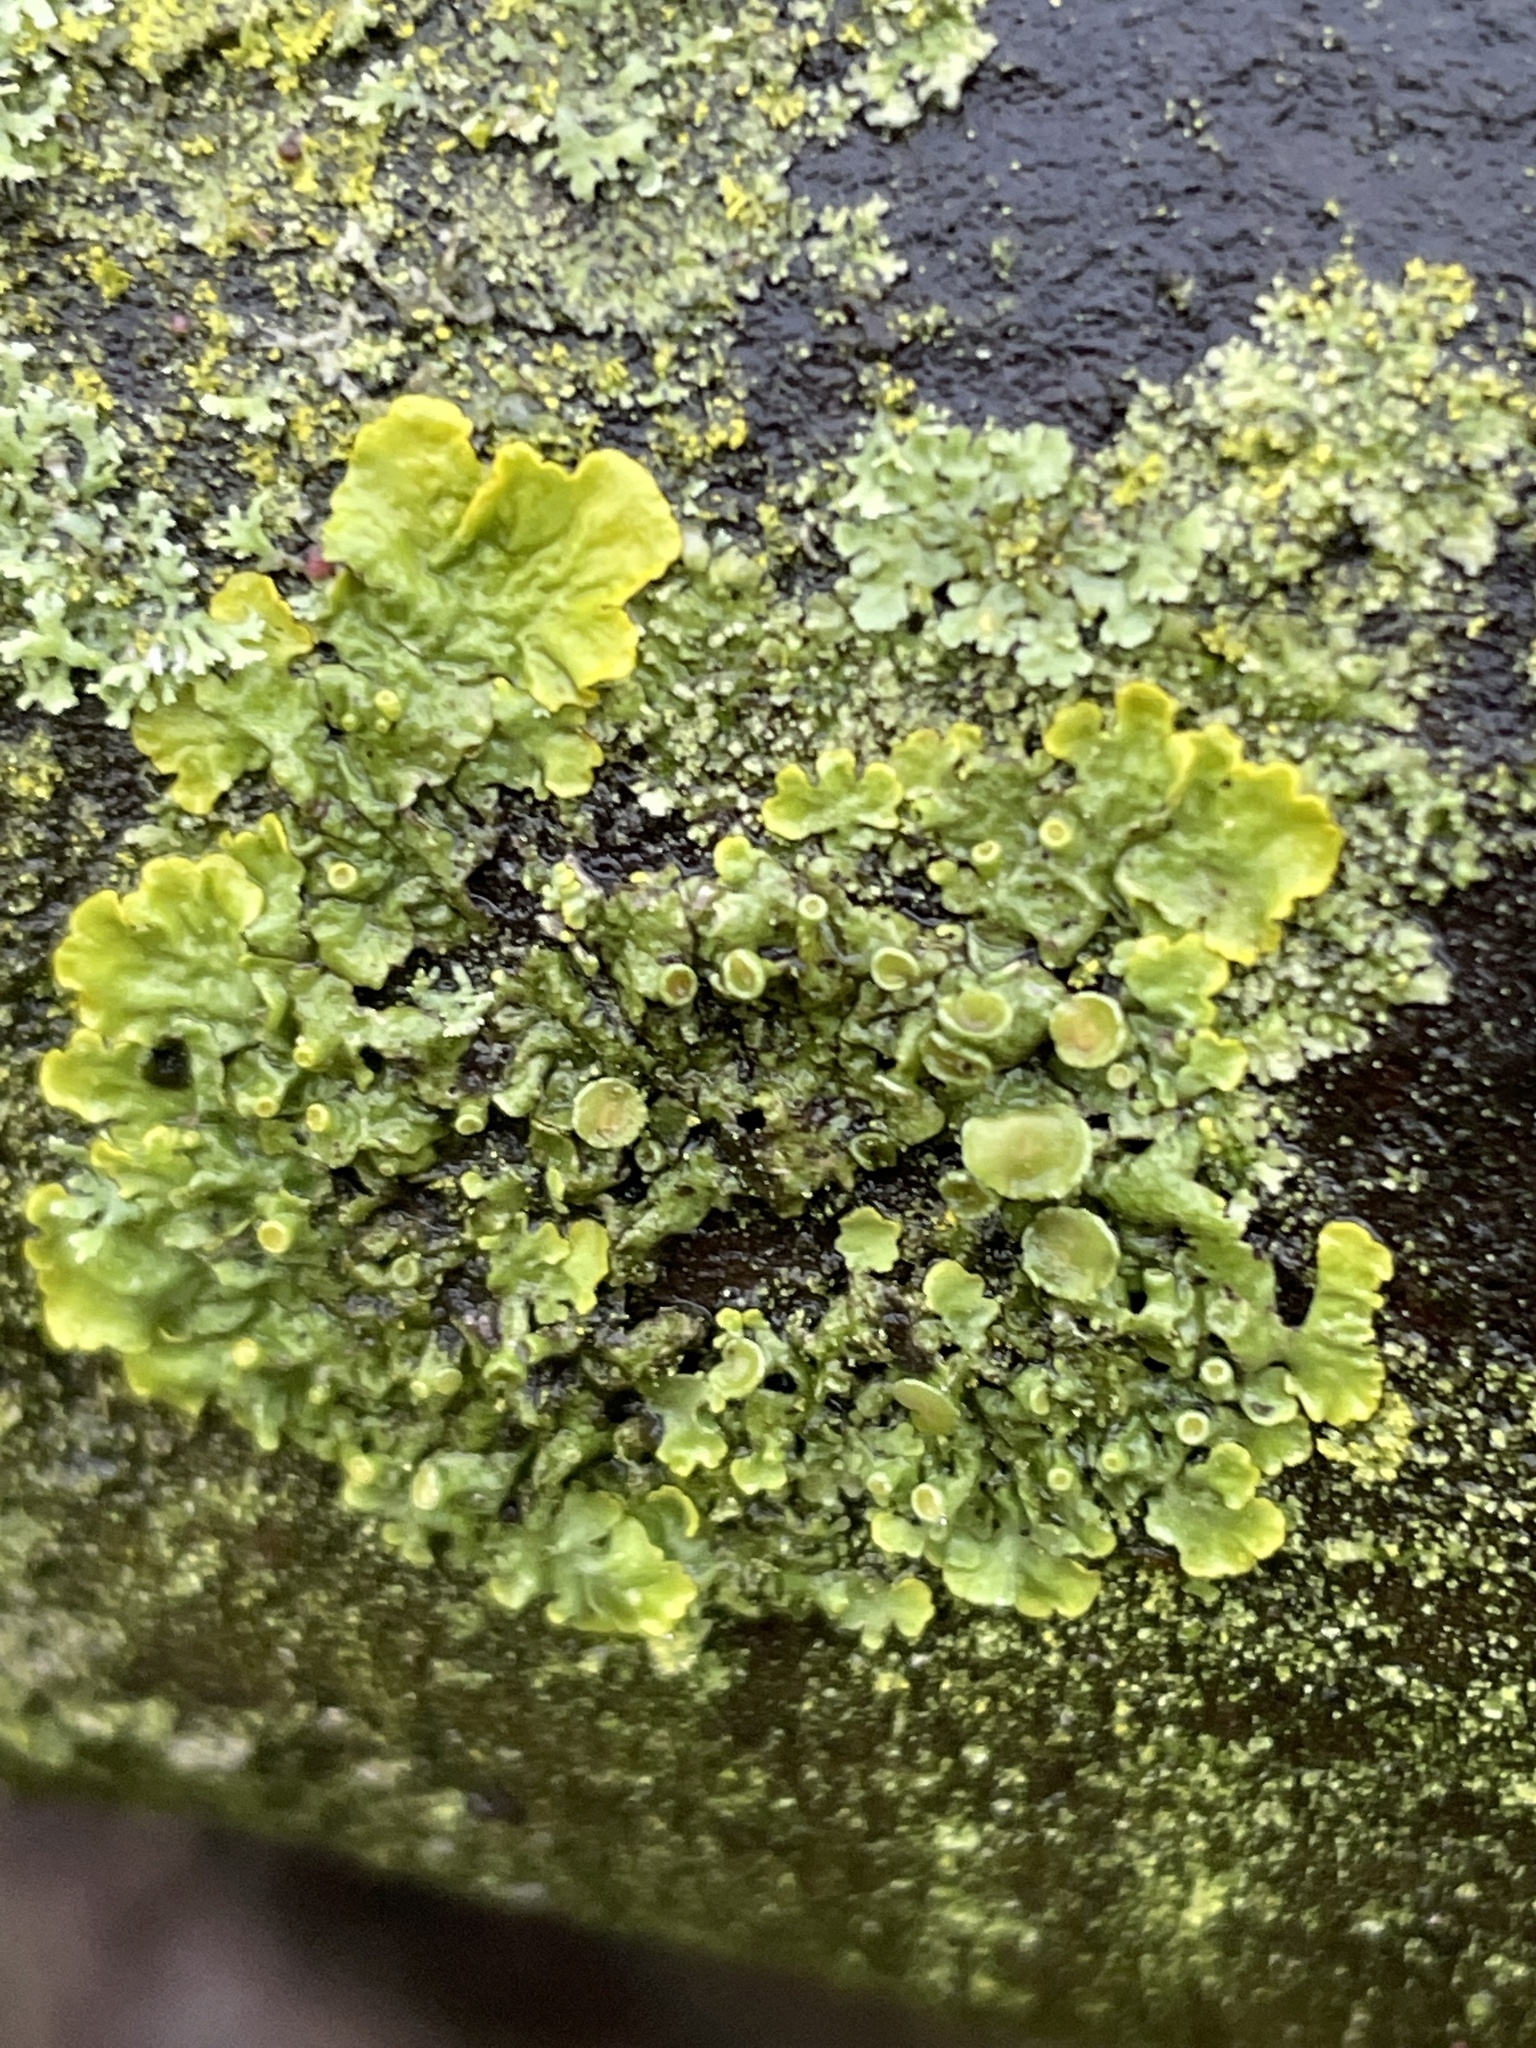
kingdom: Fungi
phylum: Ascomycota
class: Lecanoromycetes
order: Teloschistales
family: Teloschistaceae
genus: Xanthoria
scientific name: Xanthoria parietina
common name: Common orange lichen
